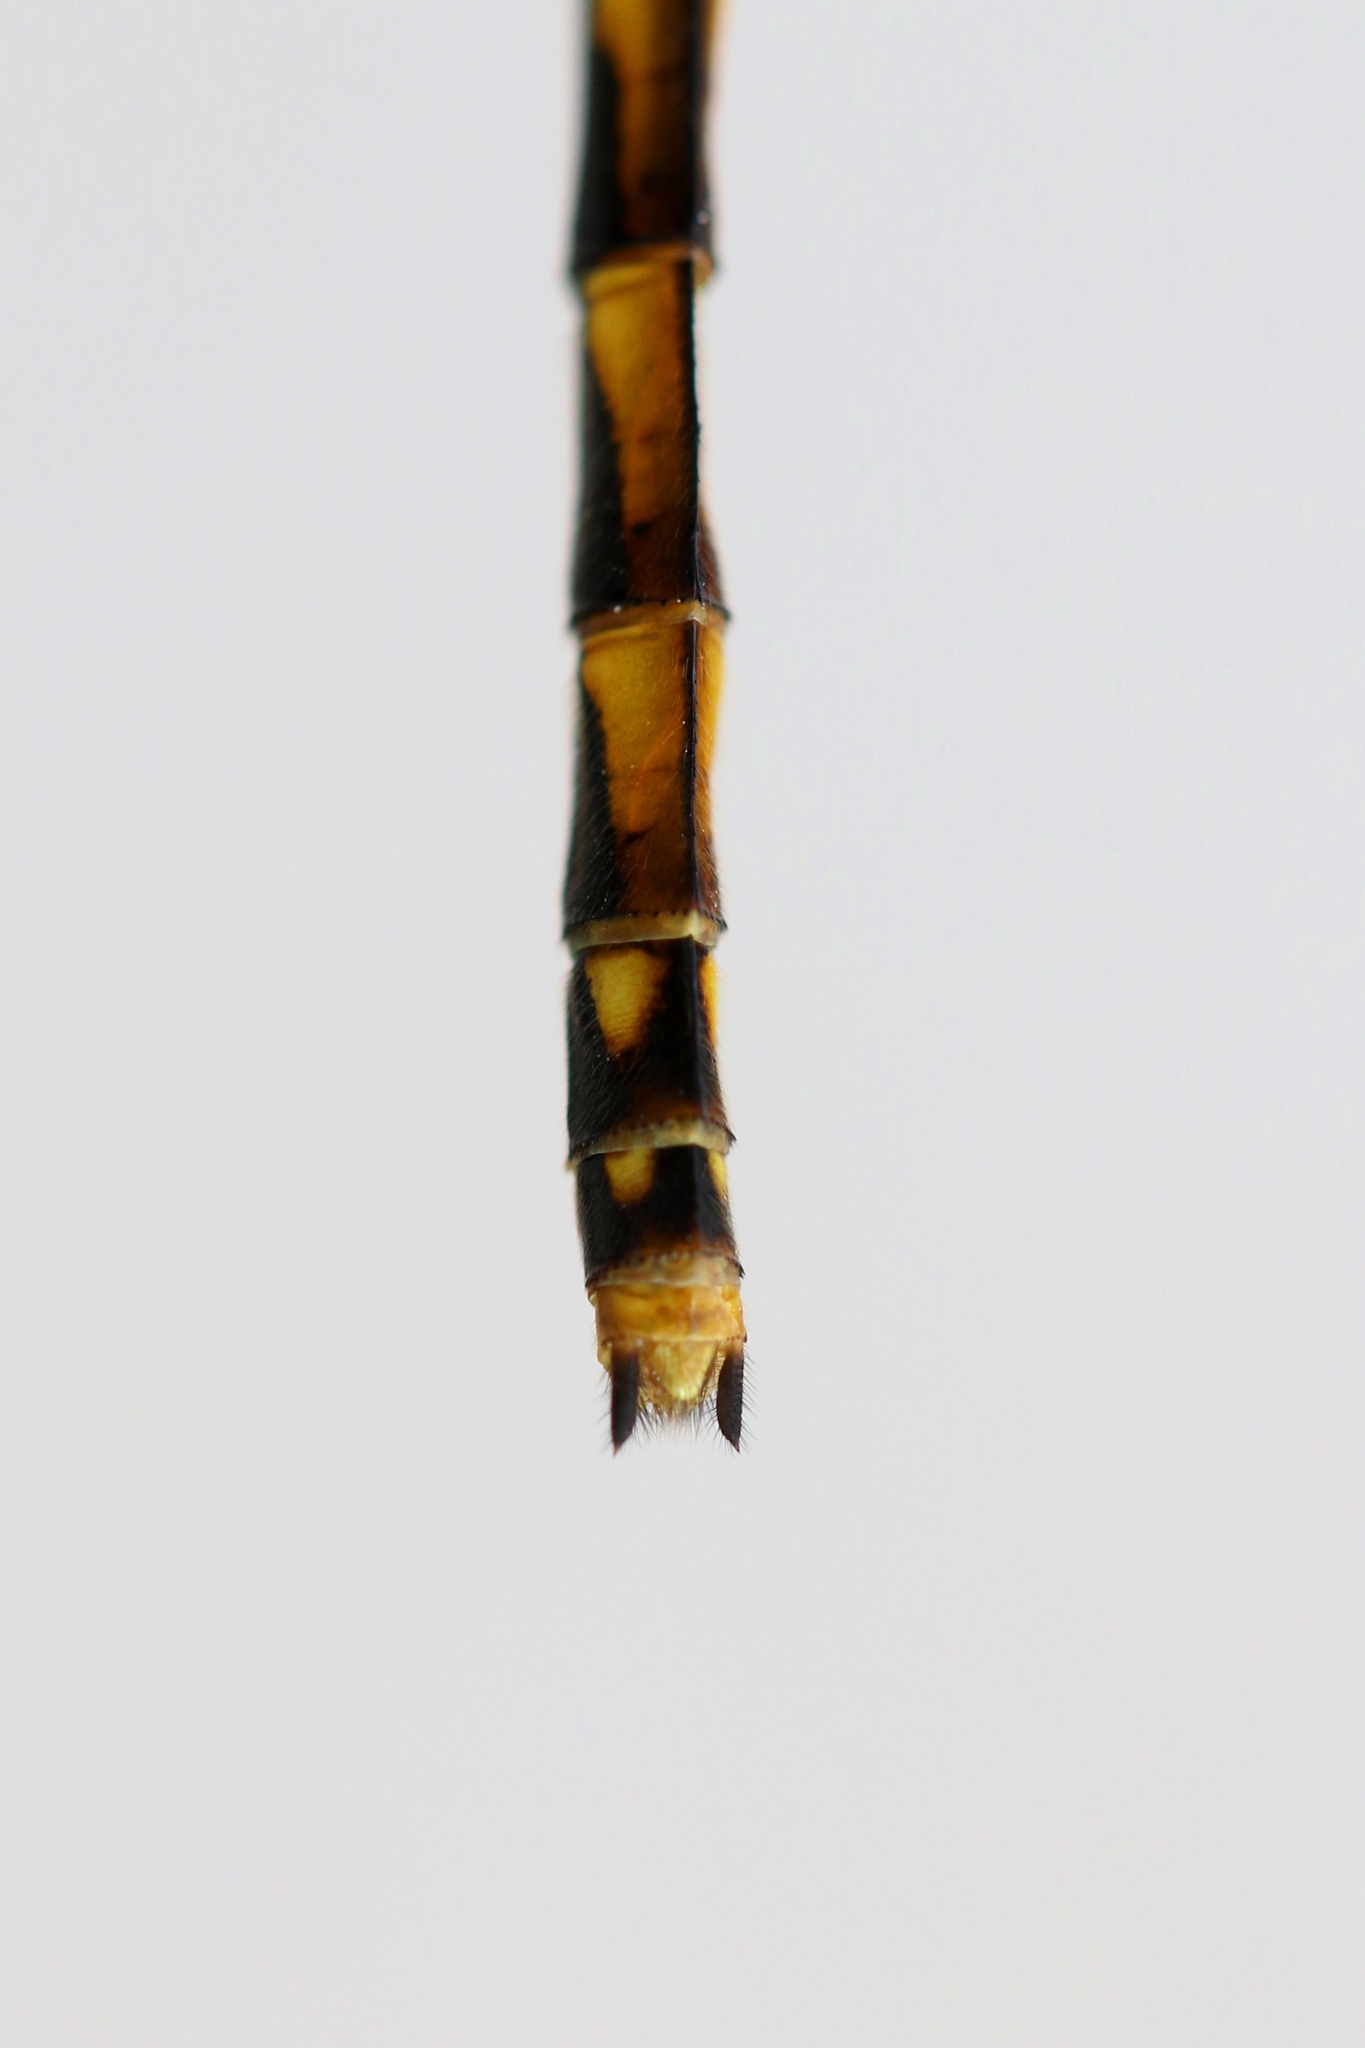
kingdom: Animalia
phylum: Arthropoda
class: Insecta
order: Odonata
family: Libellulidae
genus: Sympetrum
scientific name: Sympetrum danae
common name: Black darter
